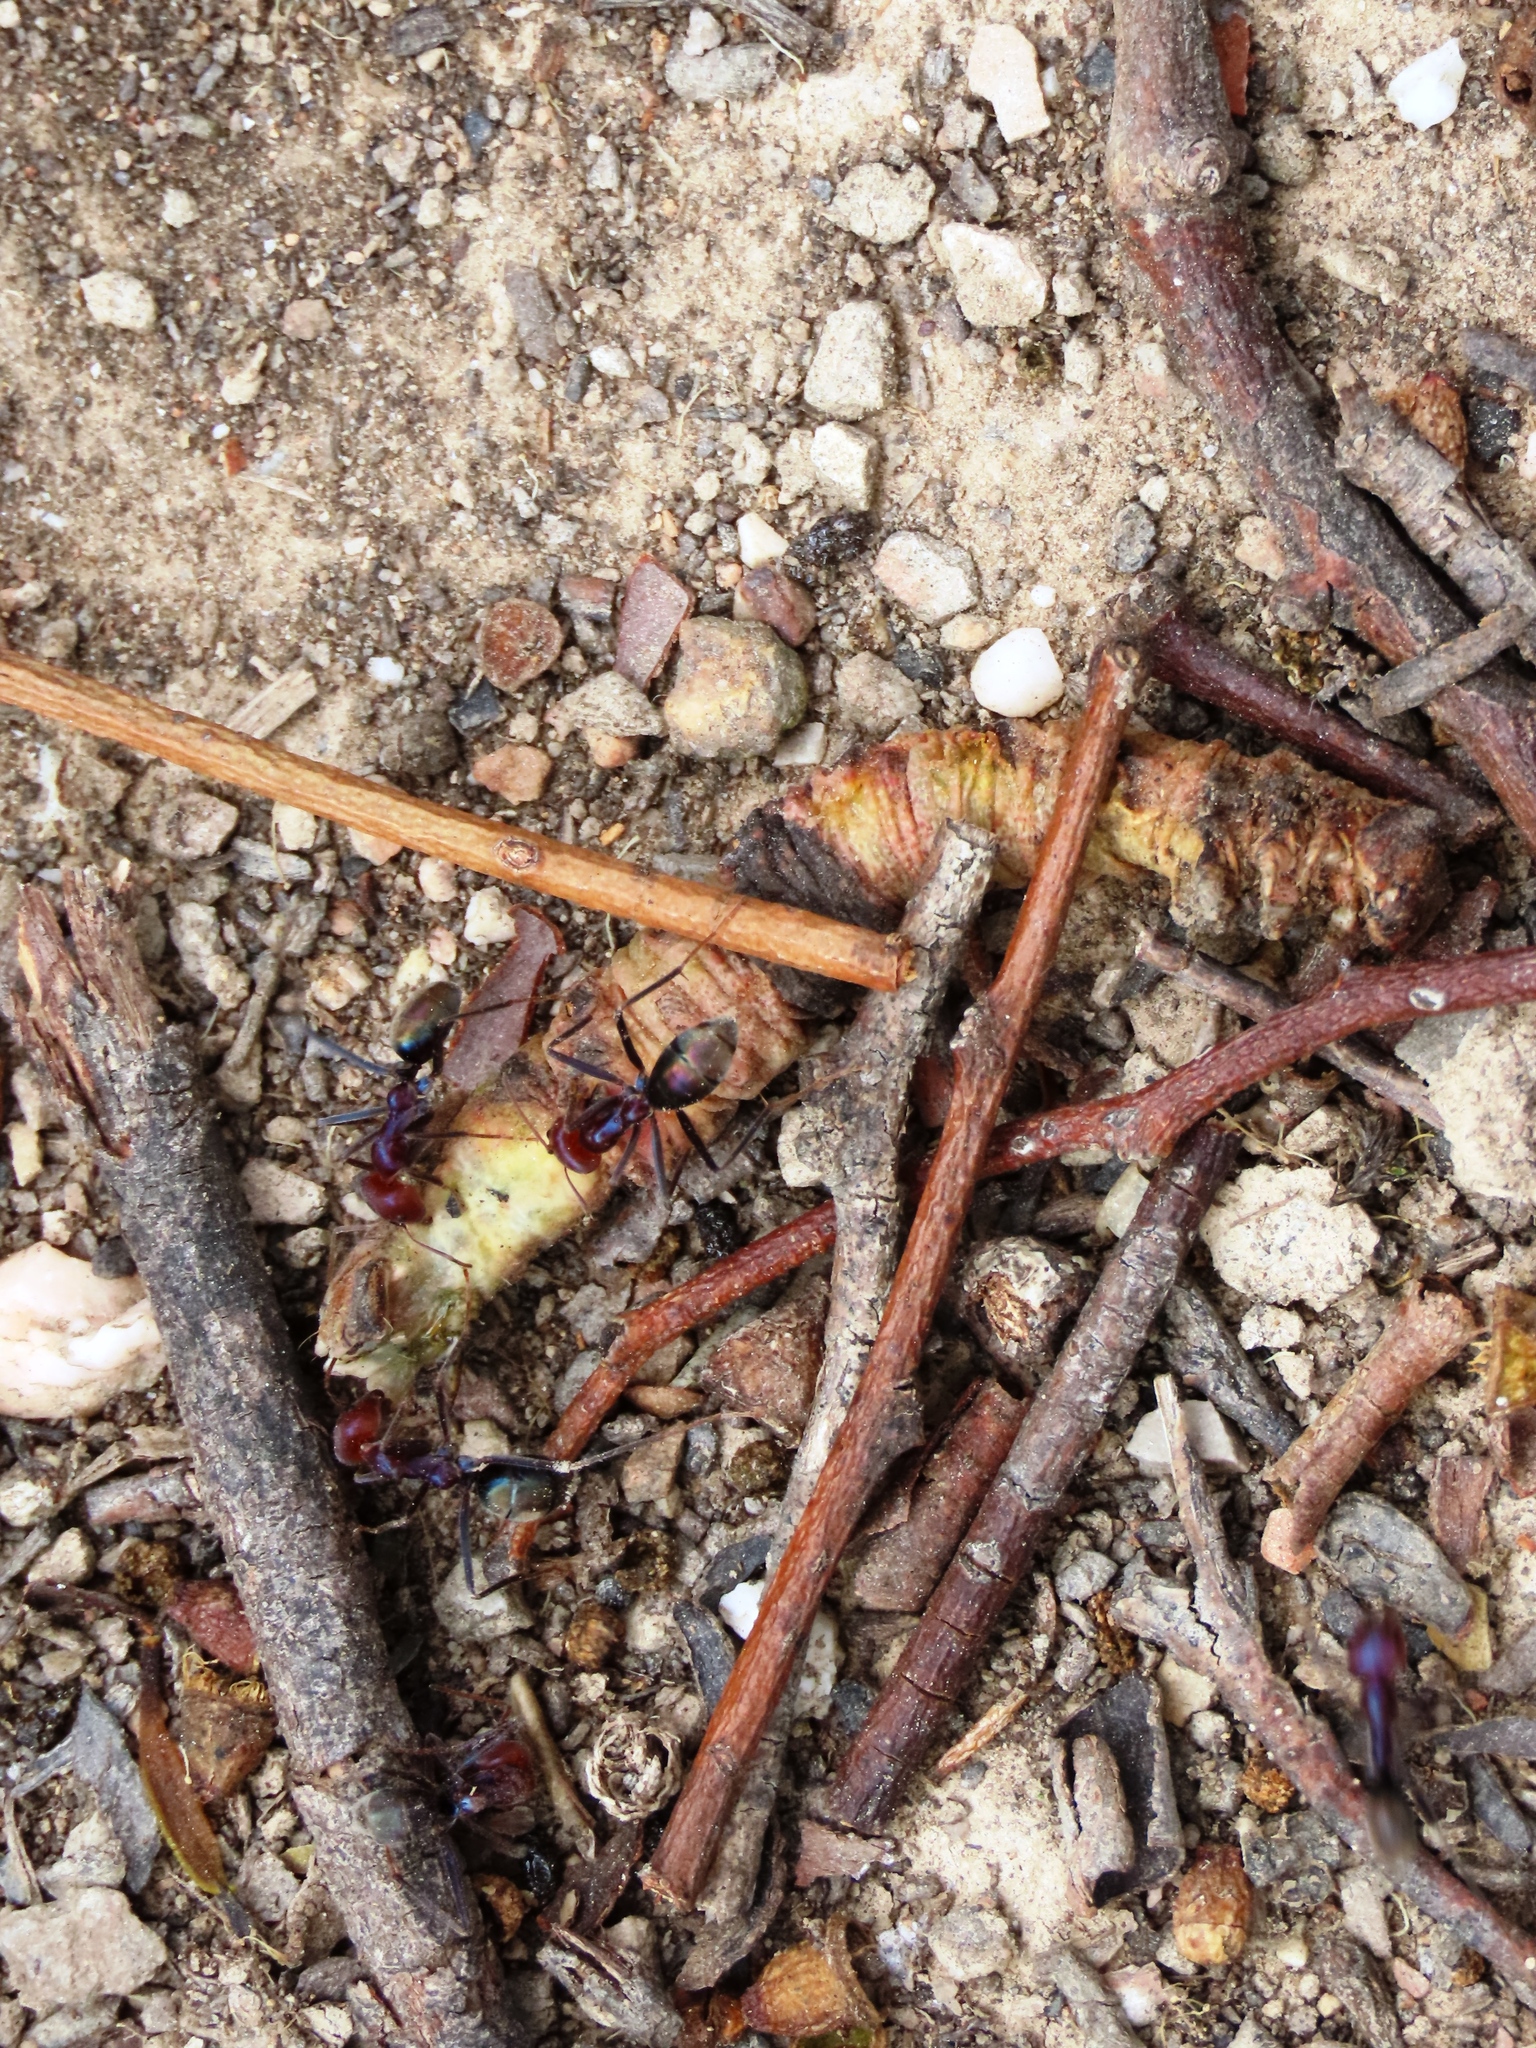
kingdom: Animalia
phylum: Arthropoda
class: Insecta
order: Hymenoptera
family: Formicidae
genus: Iridomyrmex
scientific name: Iridomyrmex purpureus
